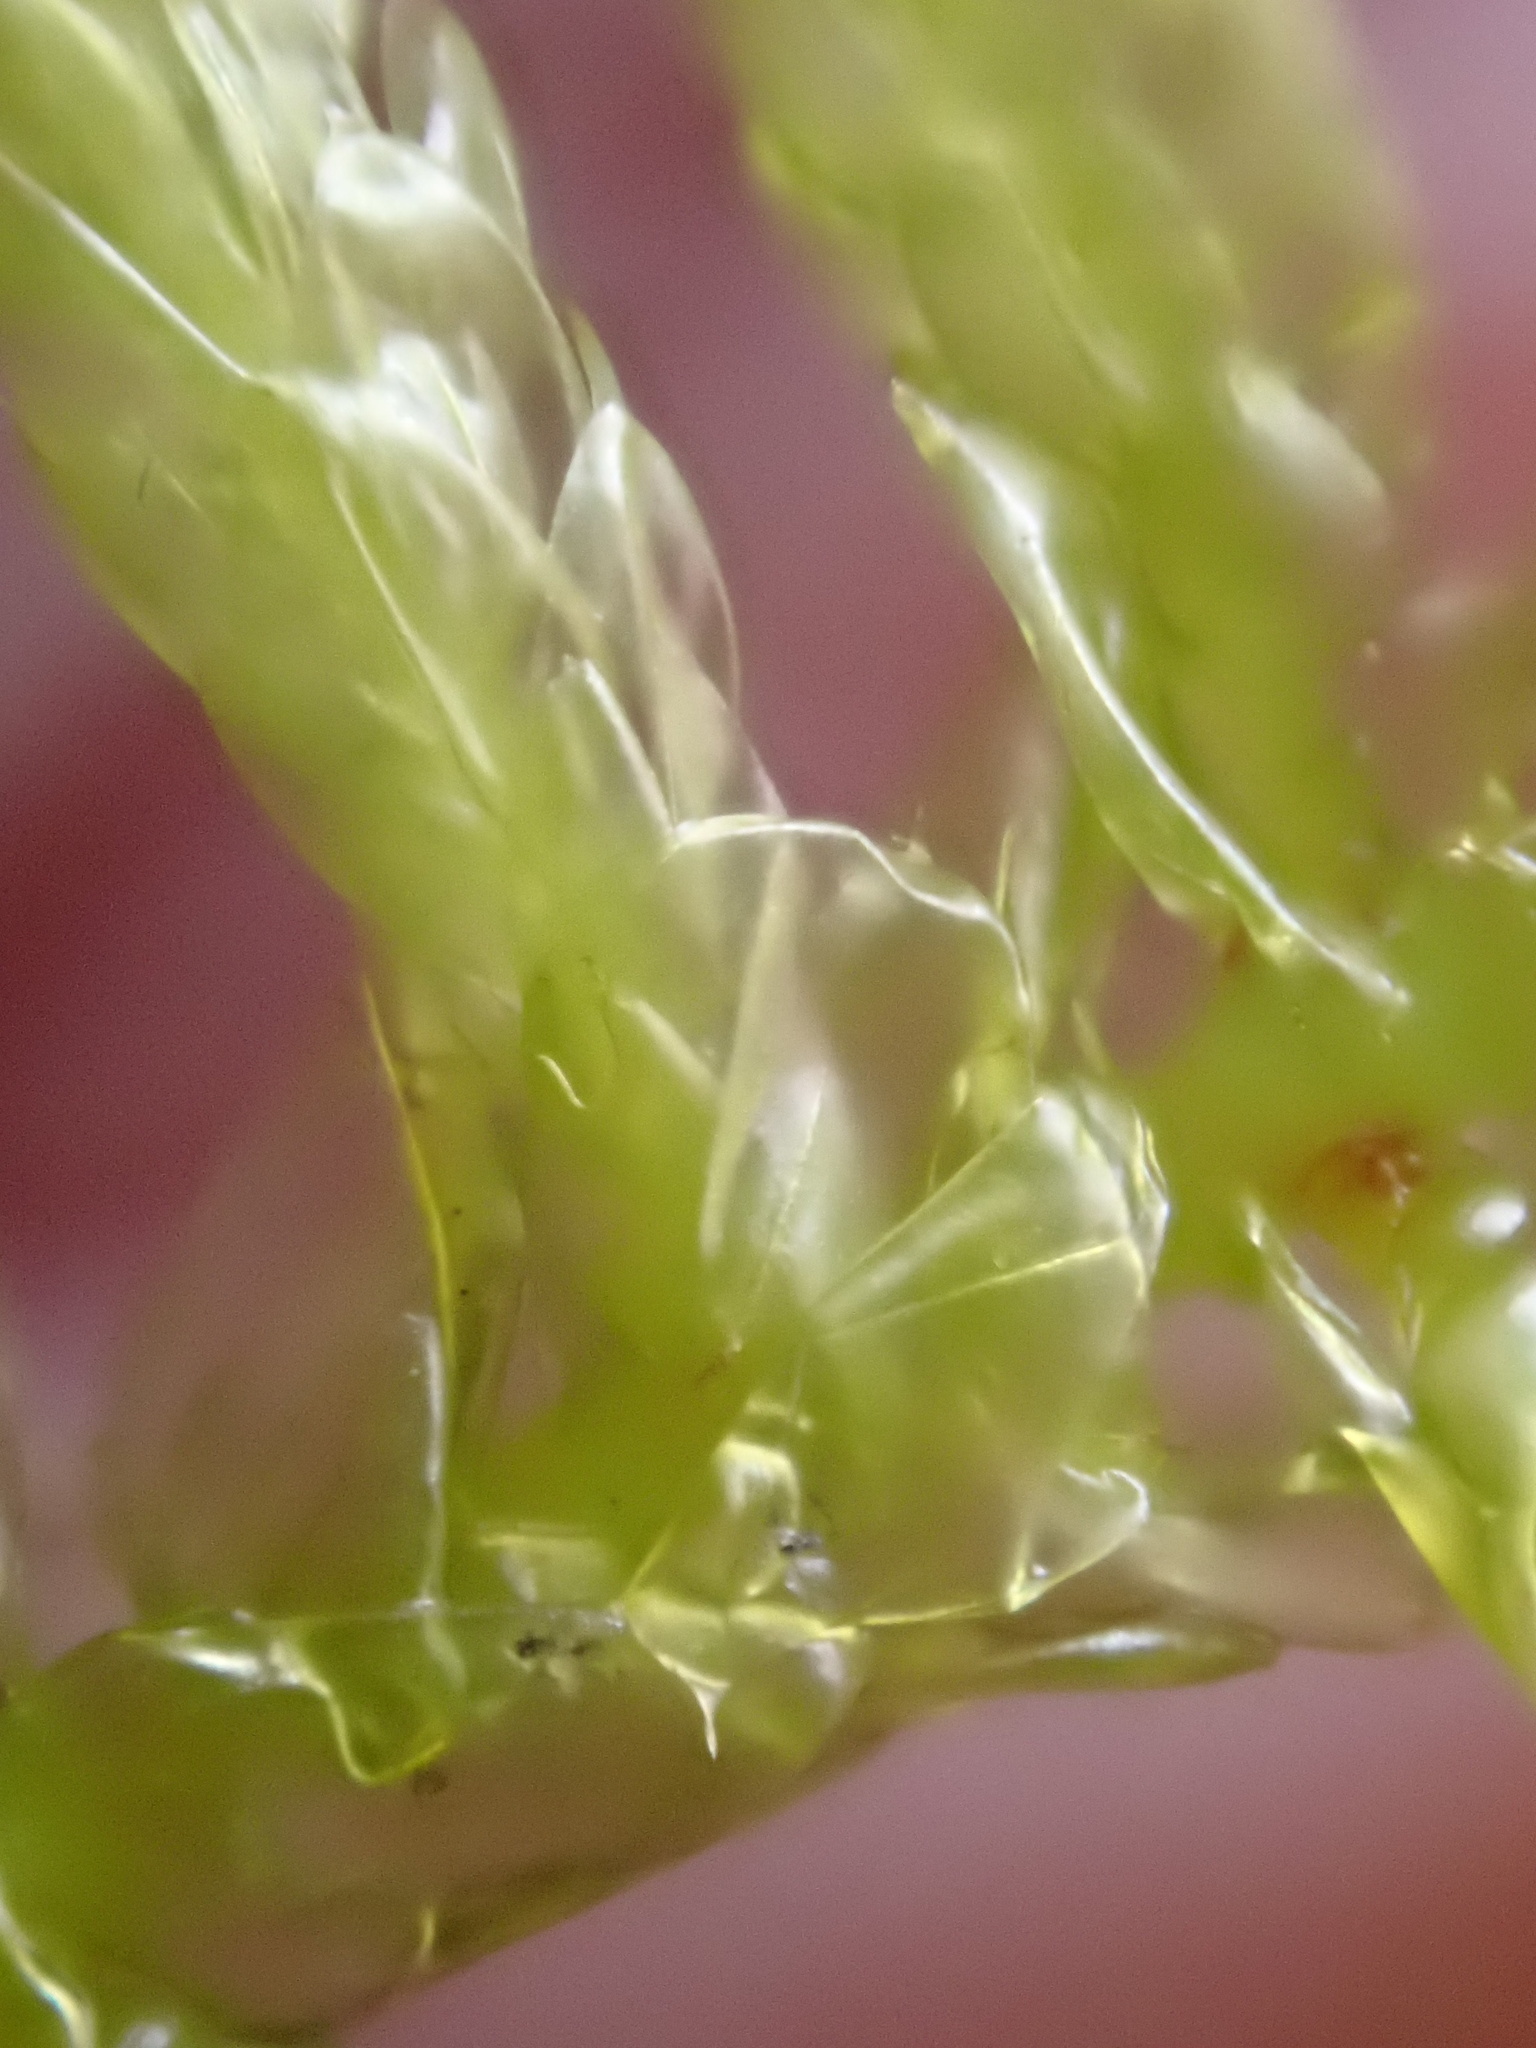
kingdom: Plantae
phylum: Bryophyta
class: Bryopsida
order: Hypnales
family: Brachytheciaceae
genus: Pseudoscleropodium
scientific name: Pseudoscleropodium purum
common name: Neat feather-moss
